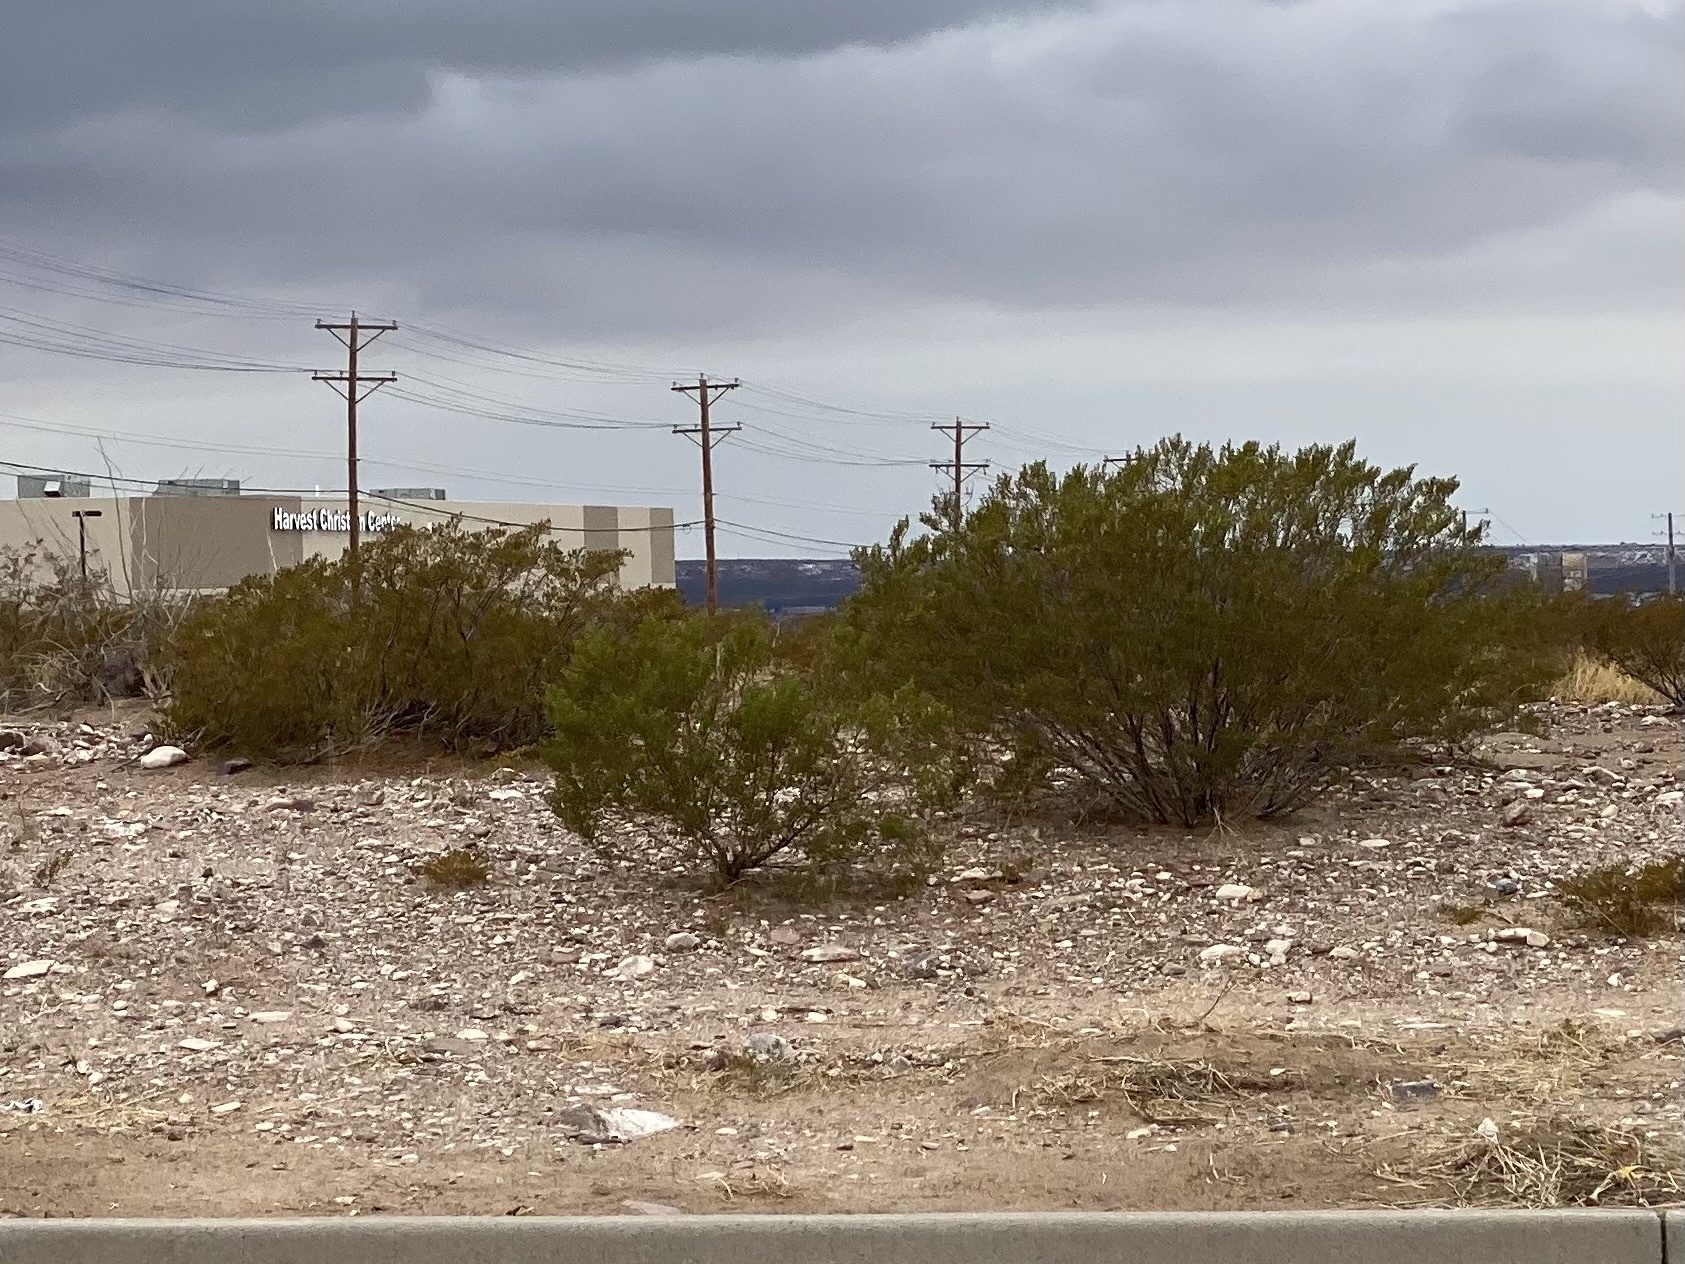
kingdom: Plantae
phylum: Tracheophyta
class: Magnoliopsida
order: Zygophyllales
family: Zygophyllaceae
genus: Larrea
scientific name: Larrea tridentata
